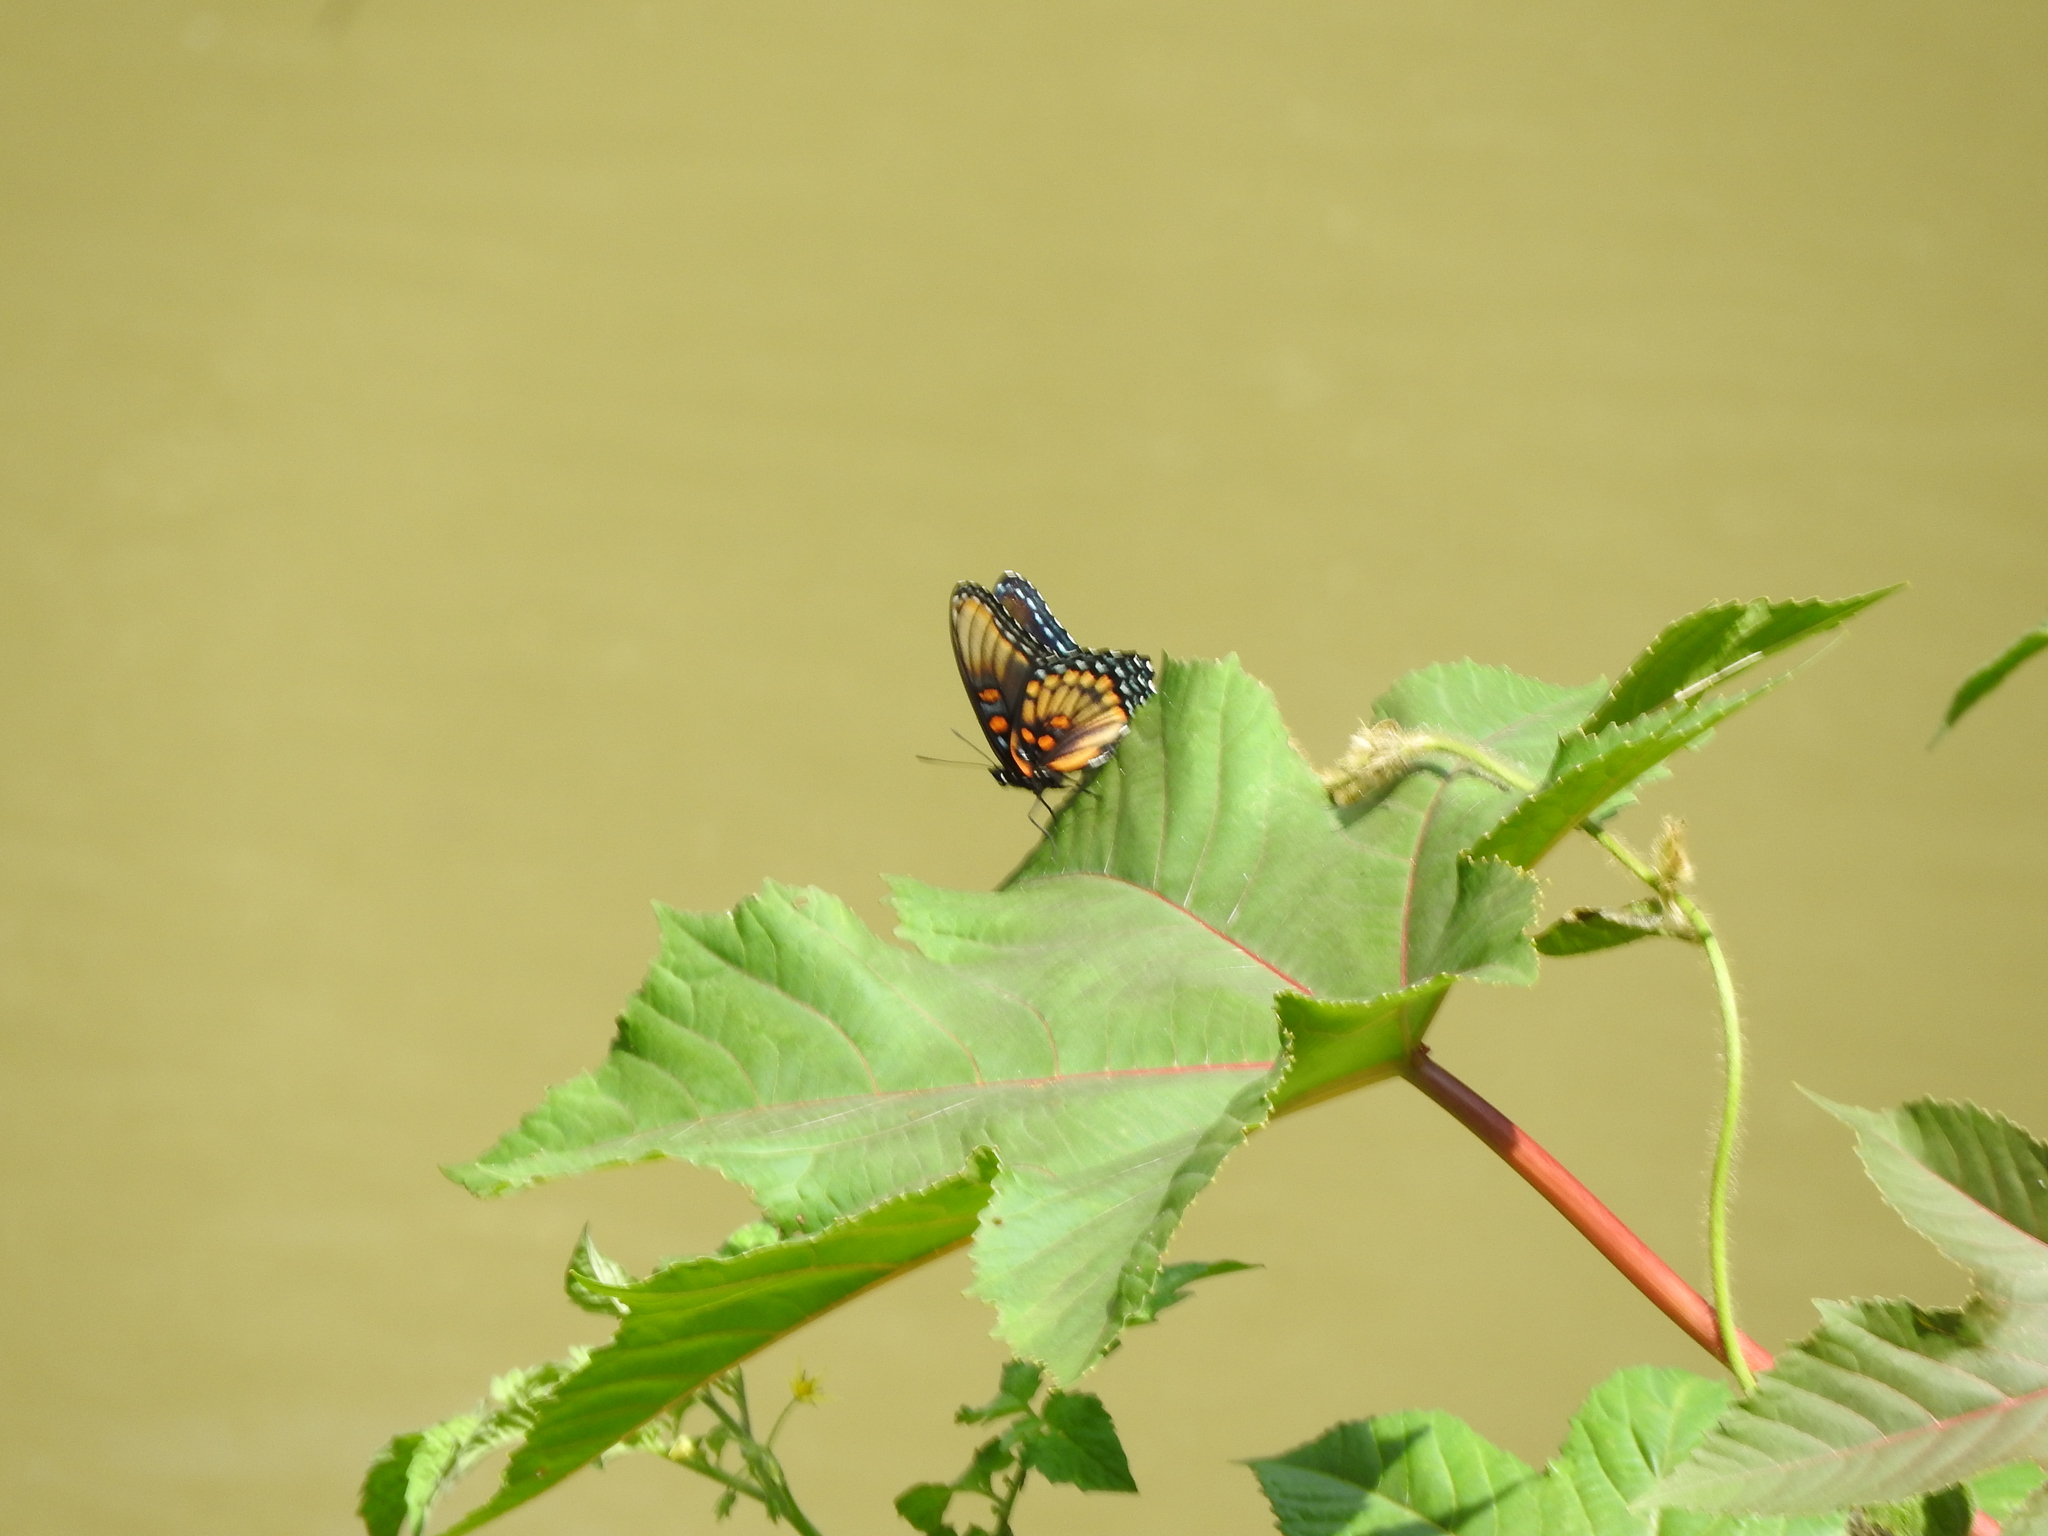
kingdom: Animalia
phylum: Arthropoda
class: Insecta
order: Lepidoptera
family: Nymphalidae
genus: Limenitis
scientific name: Limenitis arthemis
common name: Red-spotted admiral
